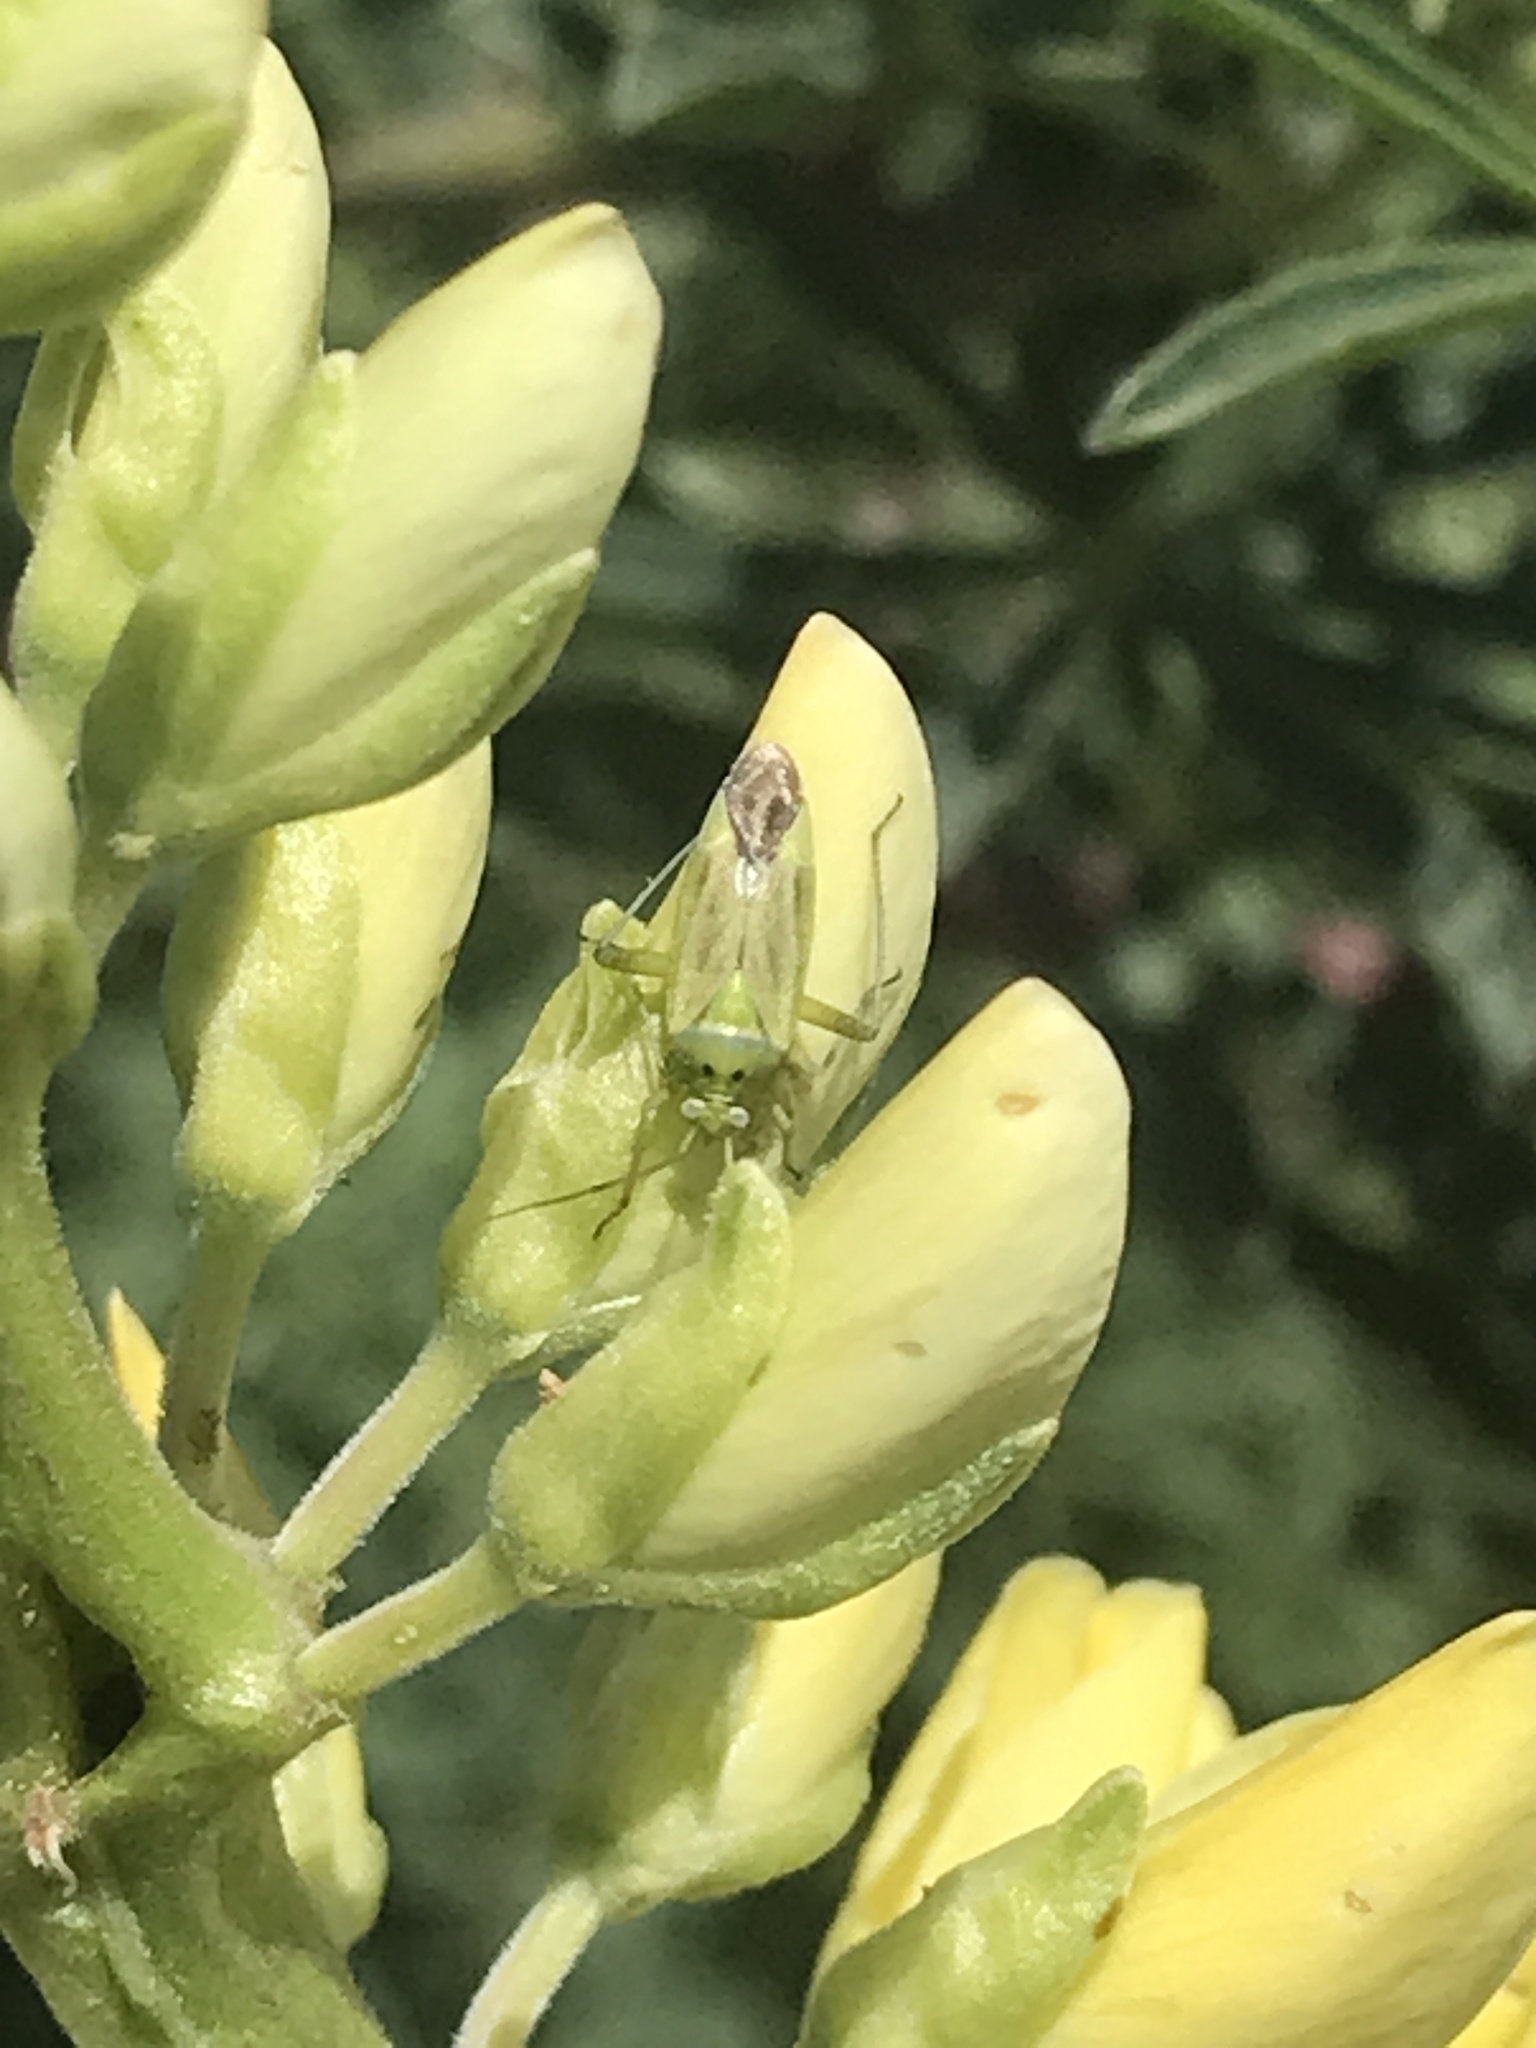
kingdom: Animalia
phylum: Arthropoda
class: Insecta
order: Hemiptera
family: Miridae
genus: Closterotomus
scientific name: Closterotomus norvegicus
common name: Plant bug
